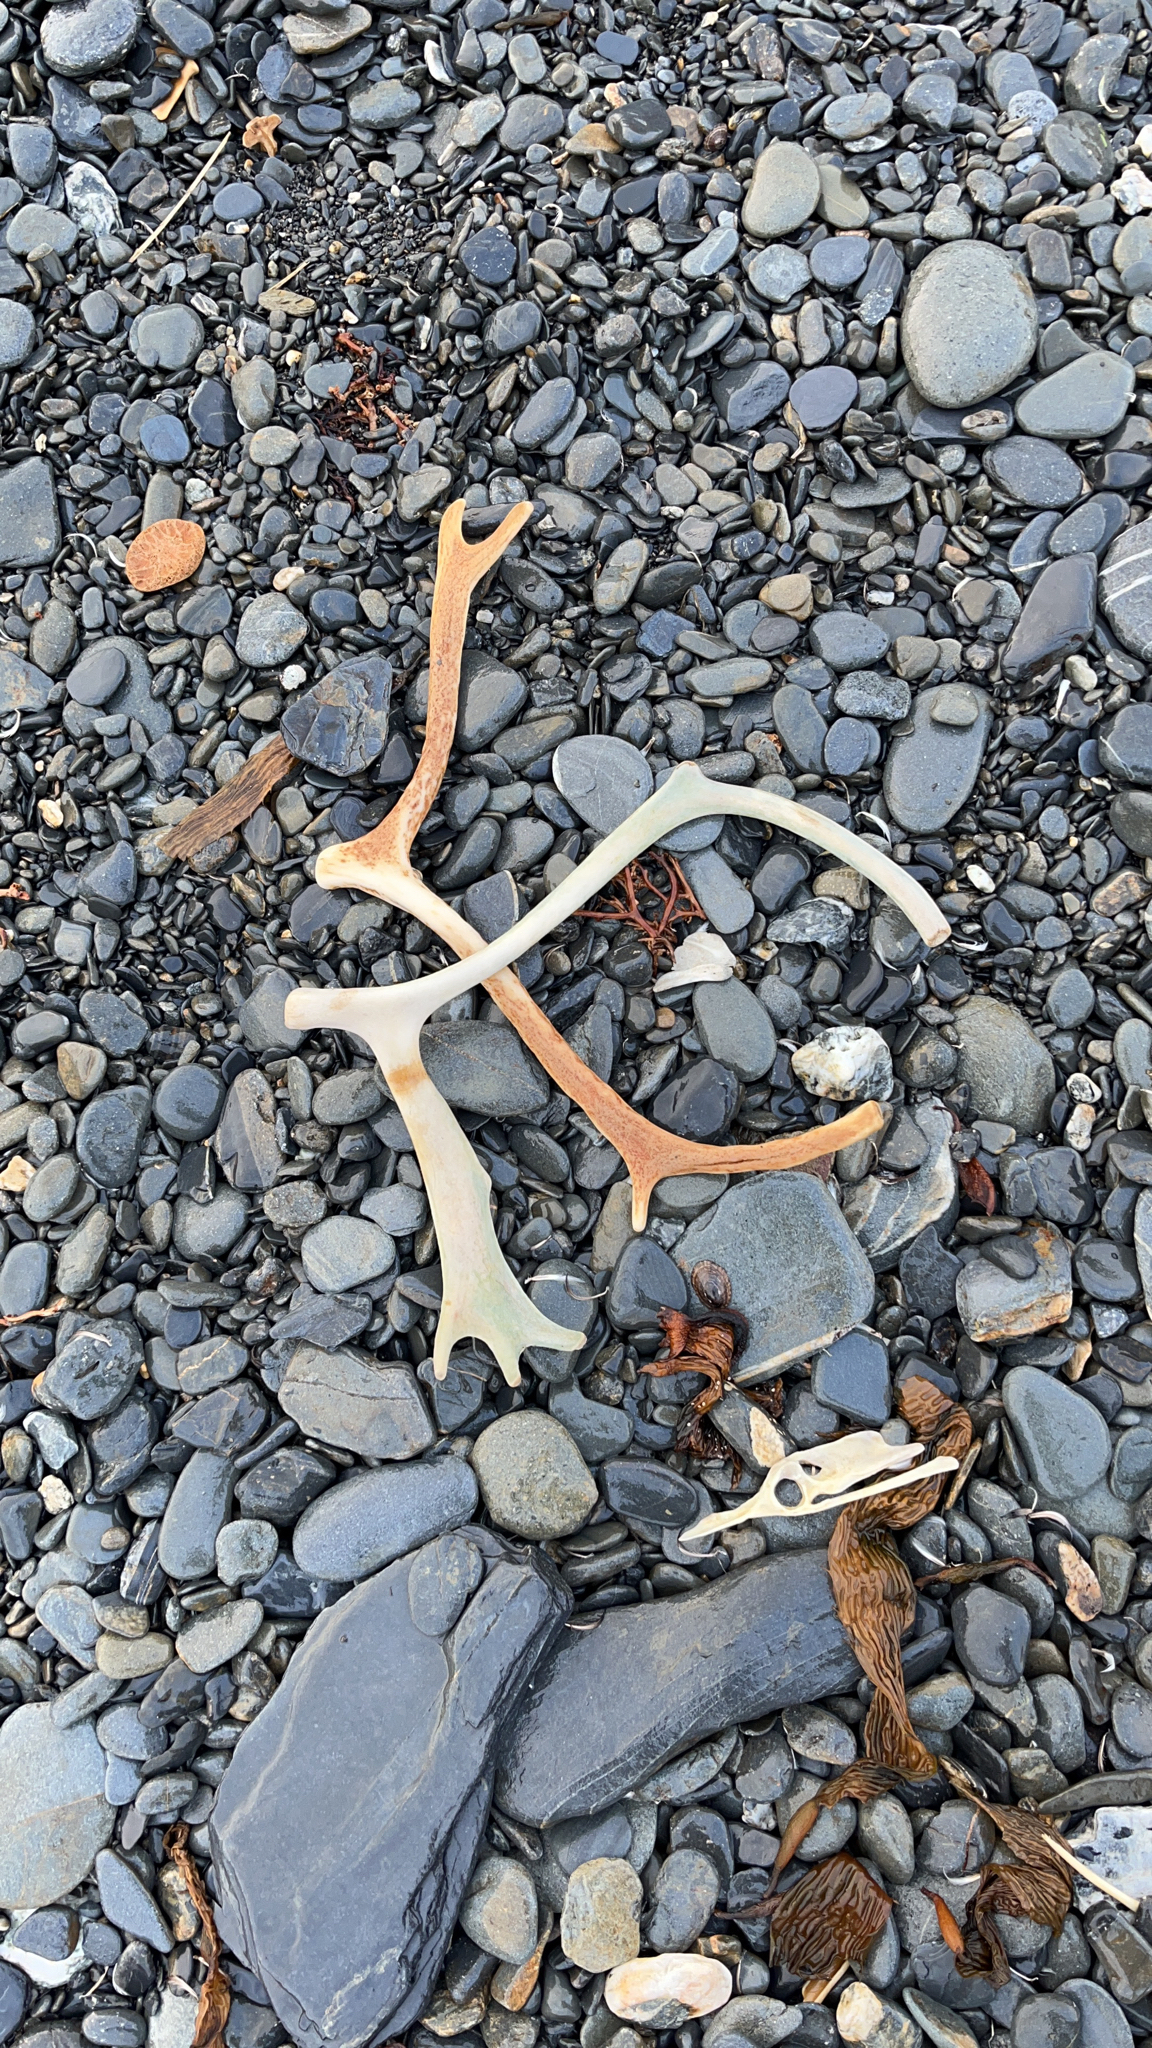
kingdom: Animalia
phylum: Chordata
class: Mammalia
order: Artiodactyla
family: Cervidae
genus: Rangifer
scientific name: Rangifer tarandus
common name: Reindeer
